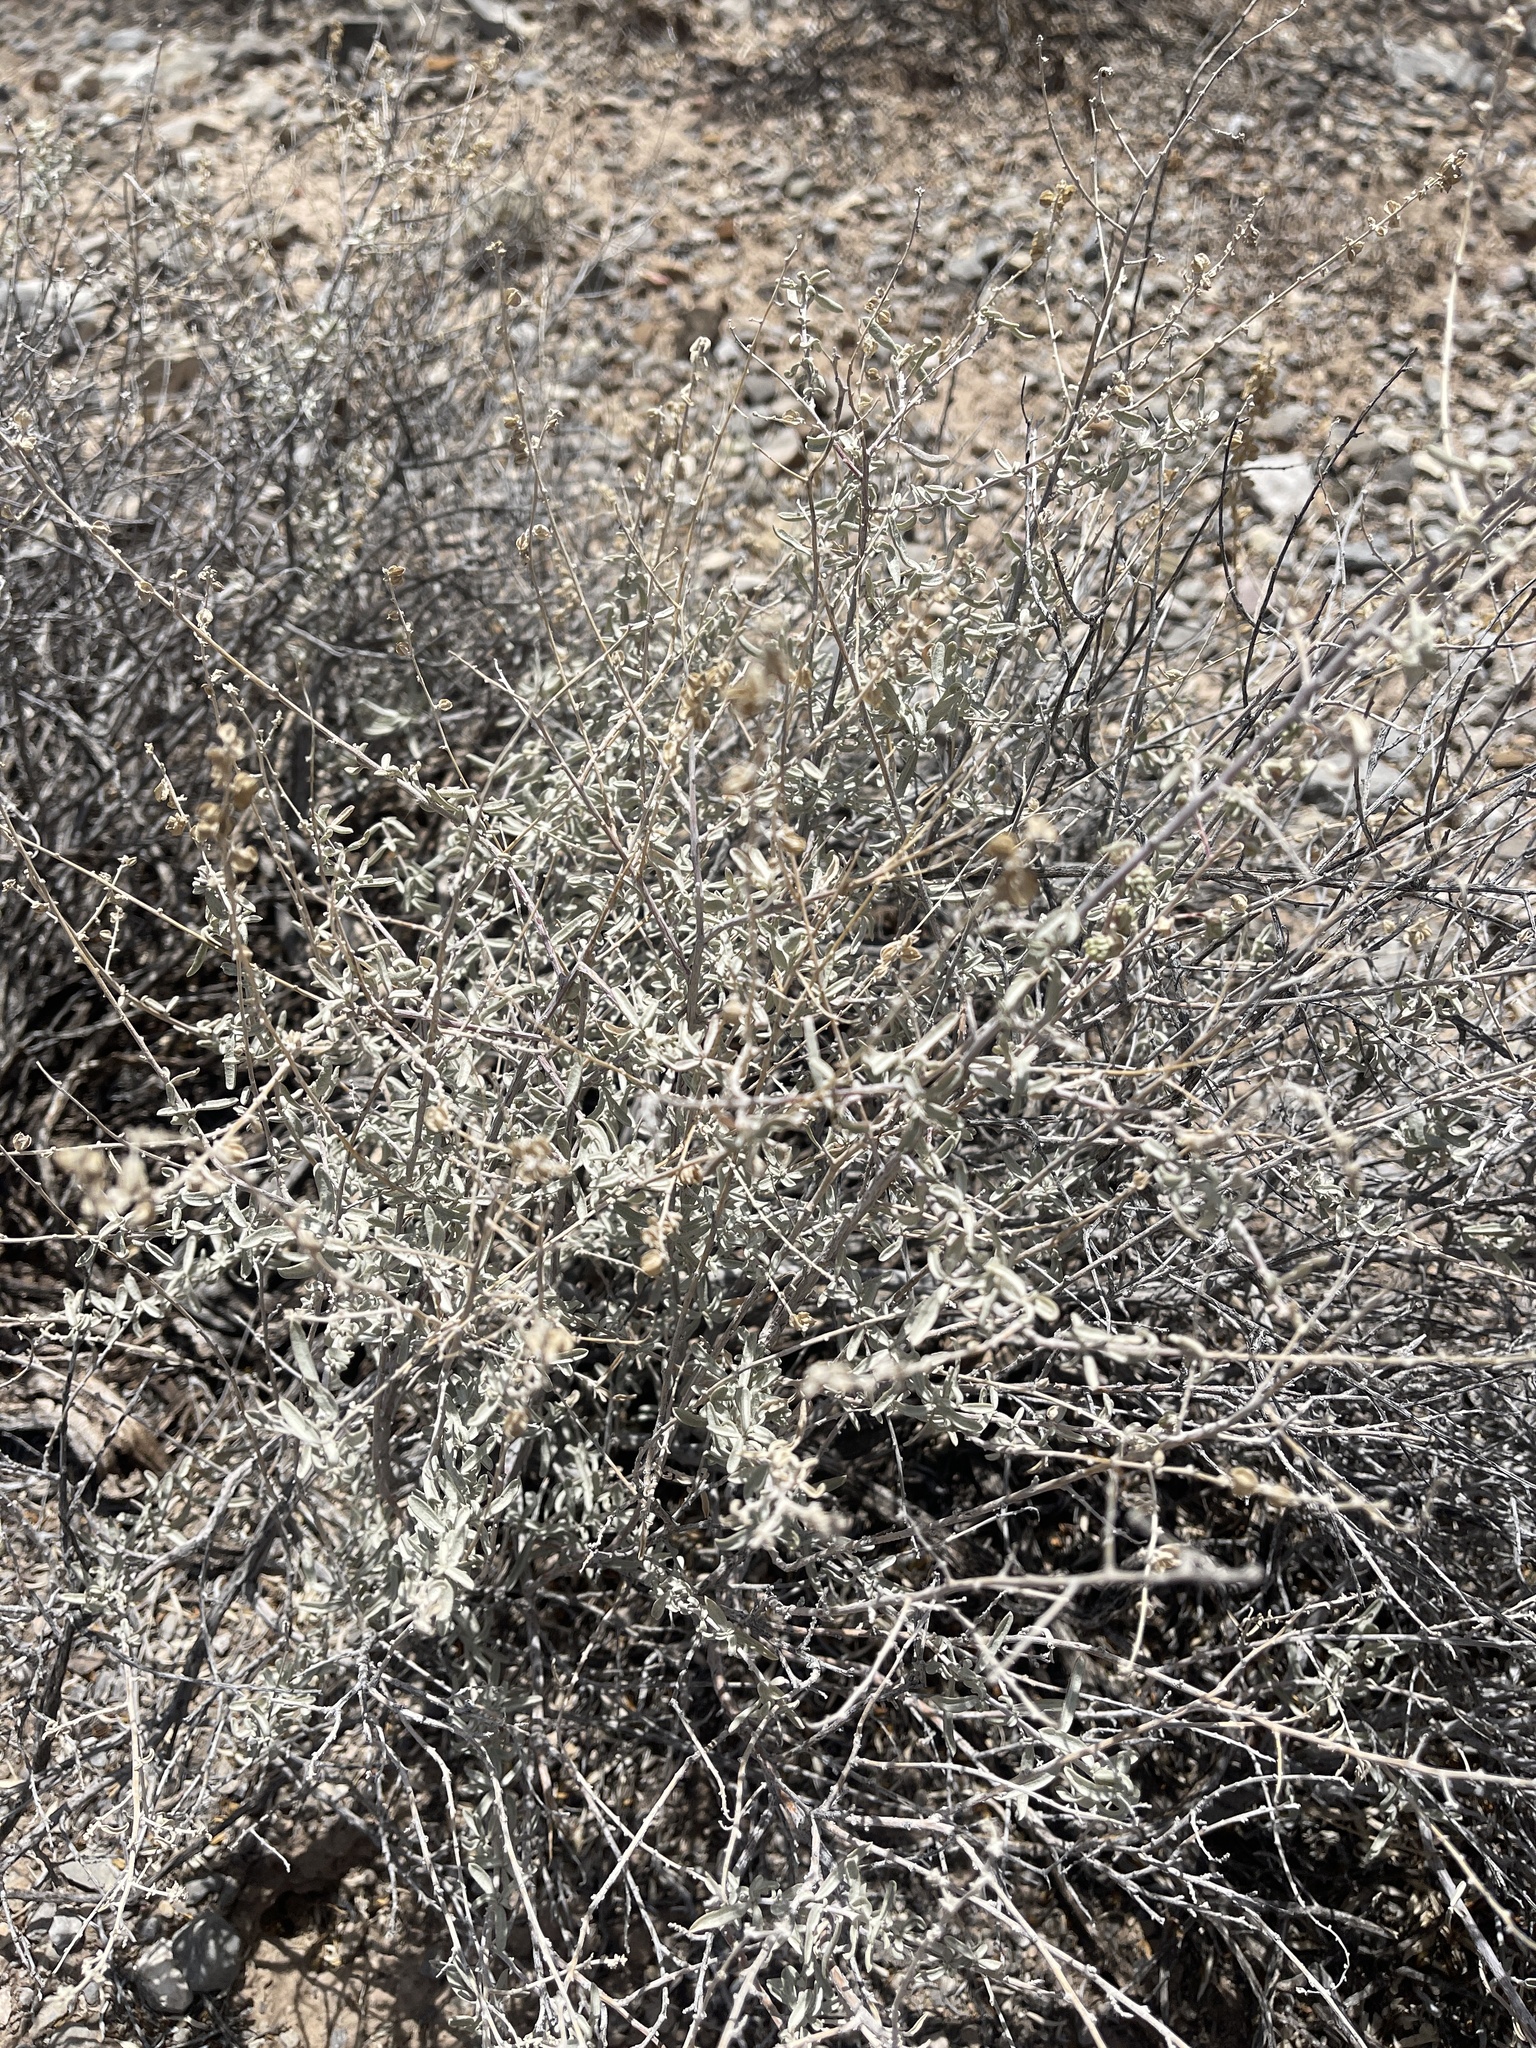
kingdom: Plantae
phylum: Tracheophyta
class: Magnoliopsida
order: Caryophyllales
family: Amaranthaceae
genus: Atriplex
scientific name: Atriplex canescens
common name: Four-wing saltbush
